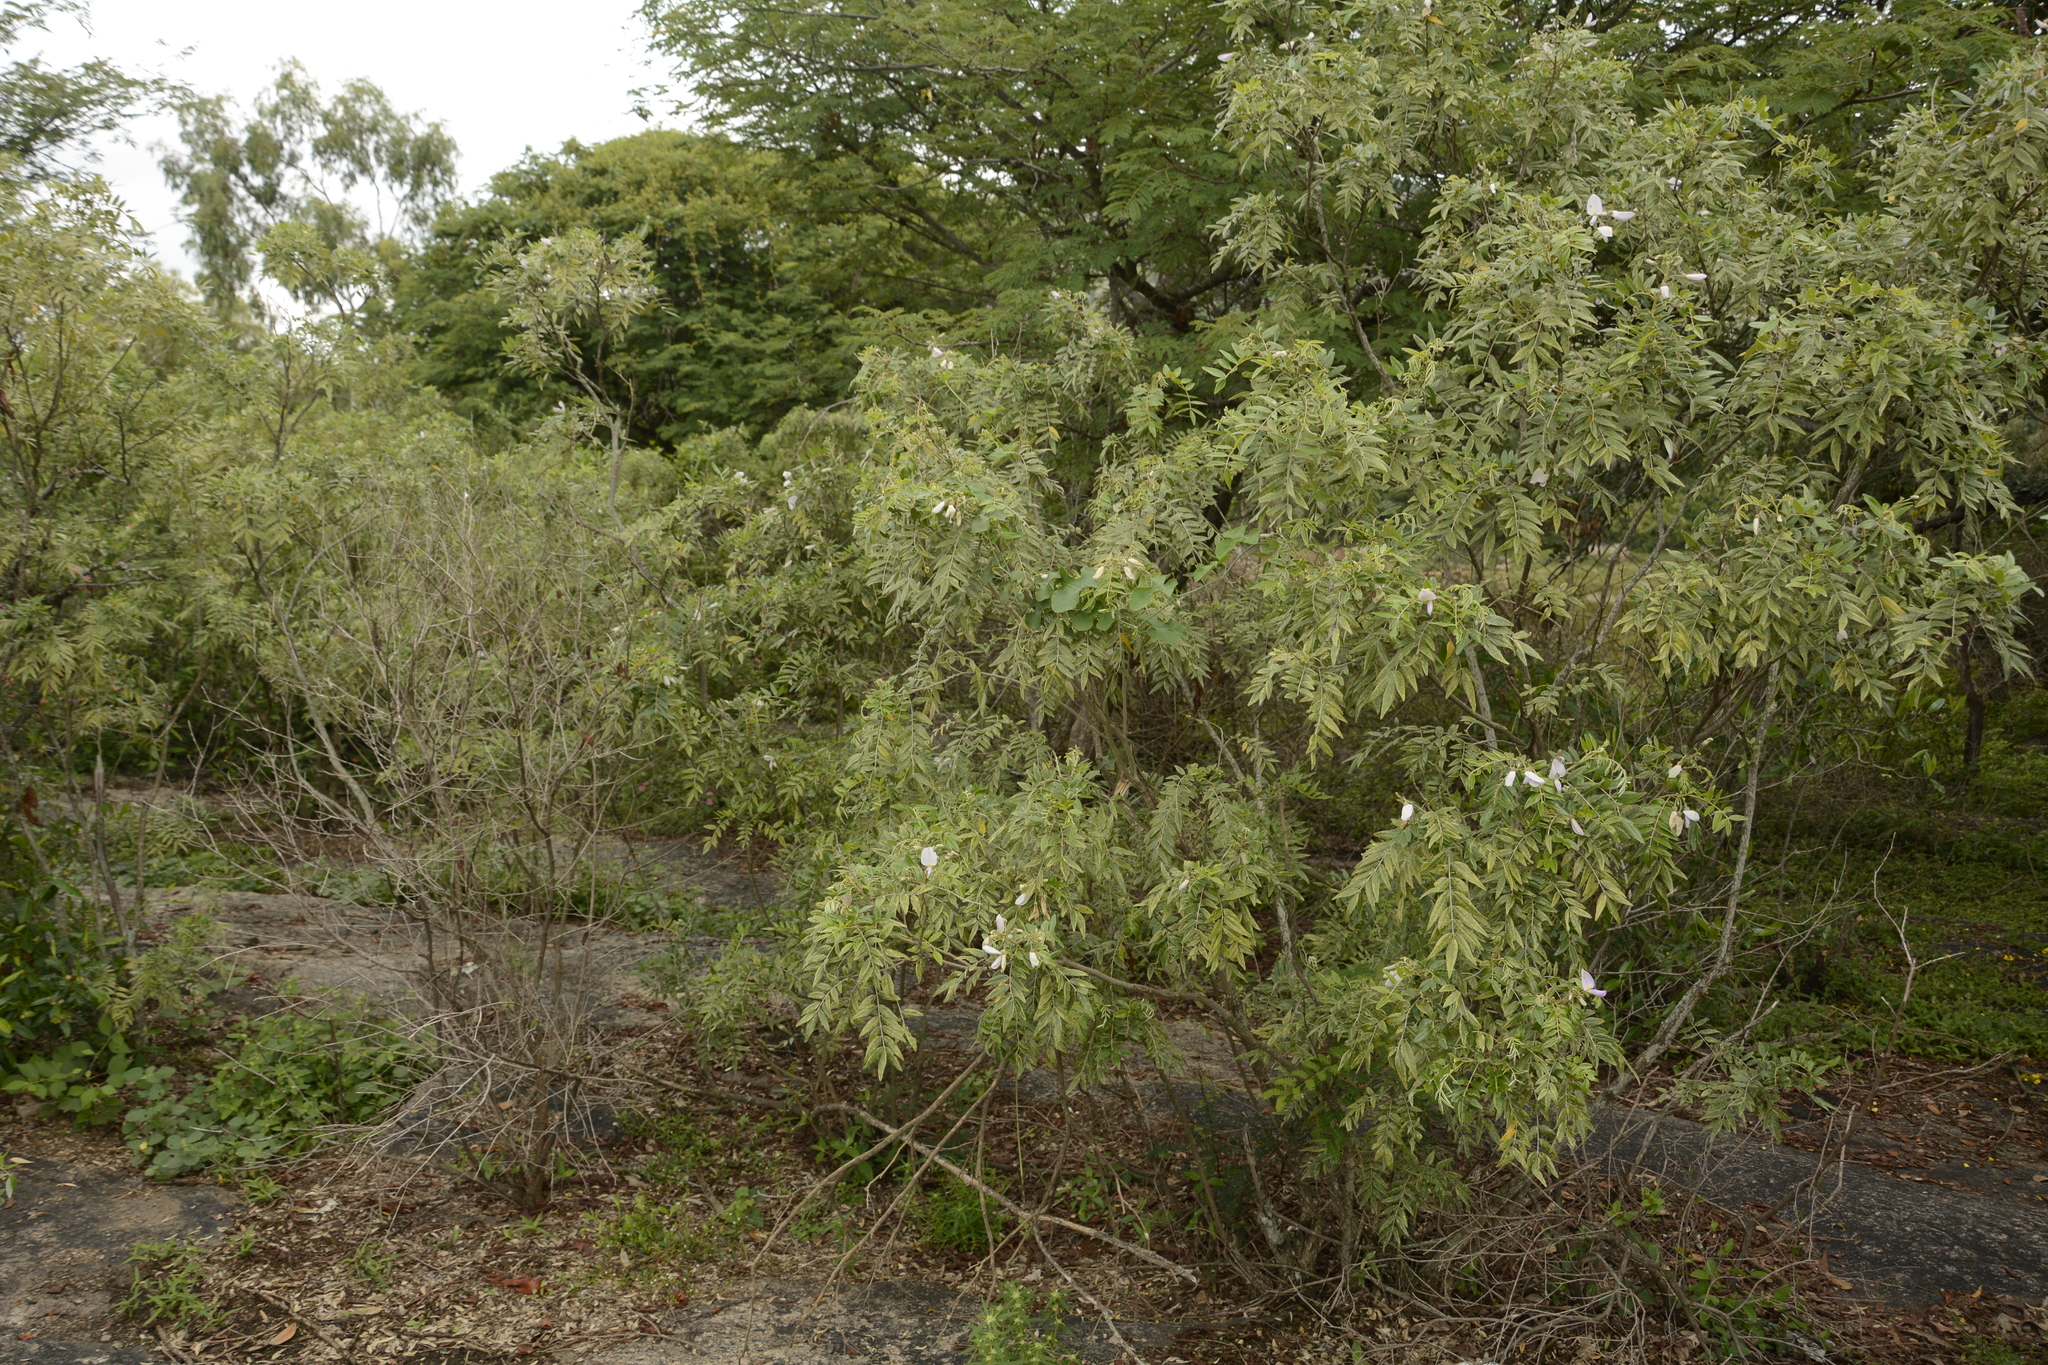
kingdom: Plantae
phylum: Tracheophyta
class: Magnoliopsida
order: Fabales
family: Fabaceae
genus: Mundulea
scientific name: Mundulea sericea
